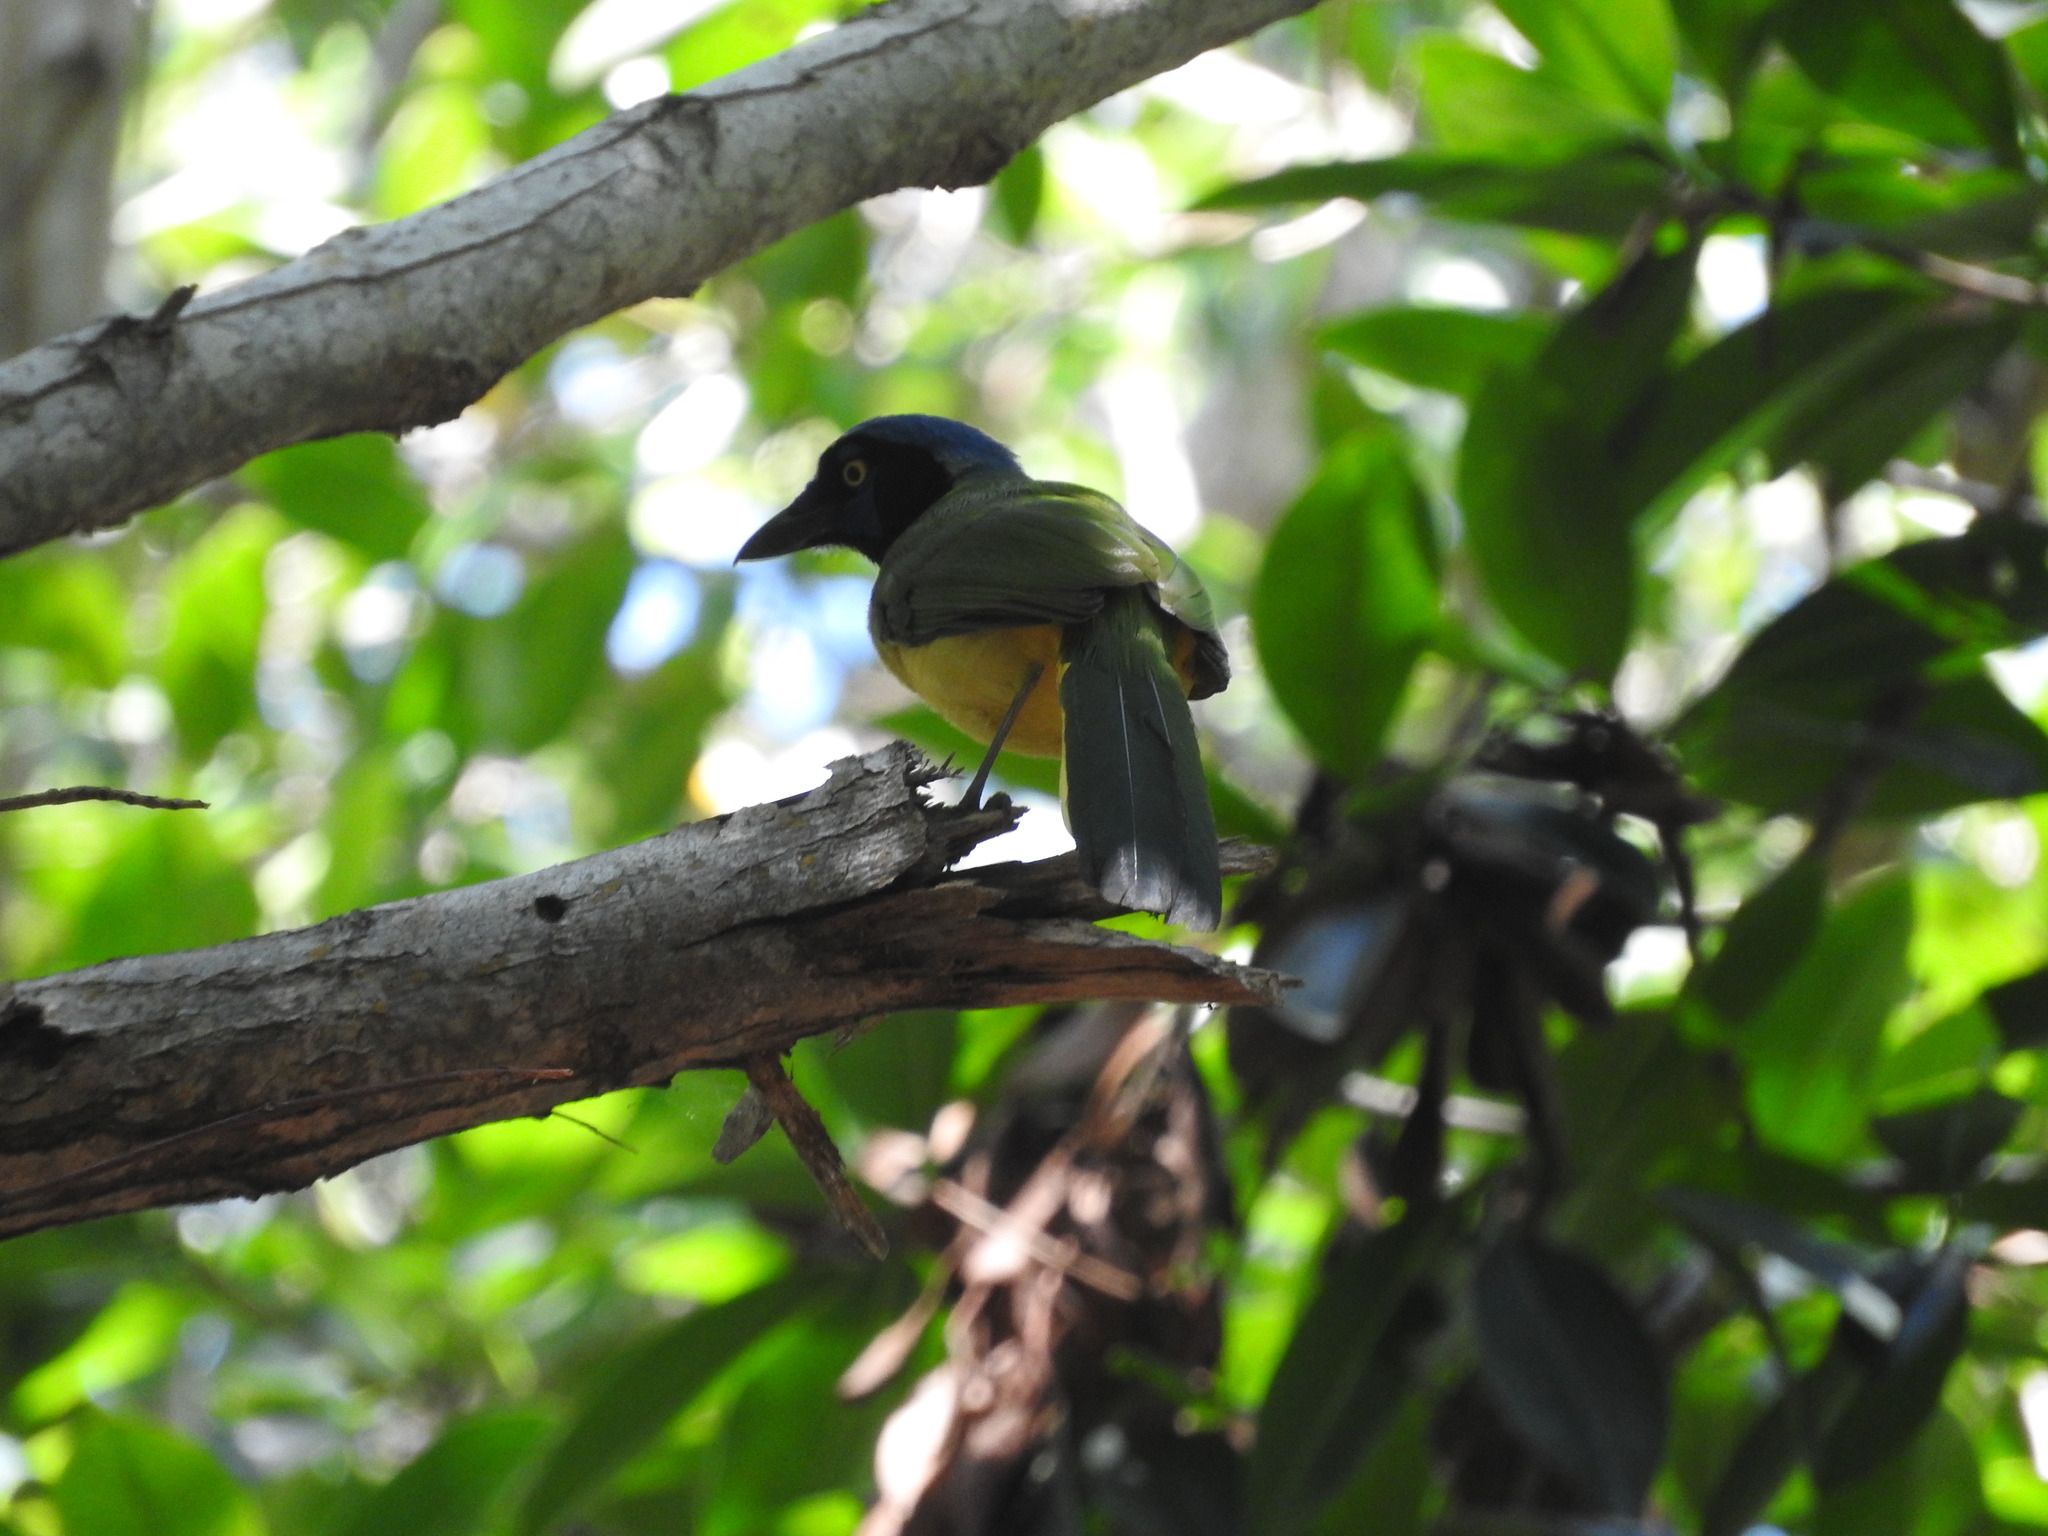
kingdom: Animalia
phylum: Chordata
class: Aves
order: Passeriformes
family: Corvidae
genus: Cyanocorax
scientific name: Cyanocorax yncas
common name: Green jay
